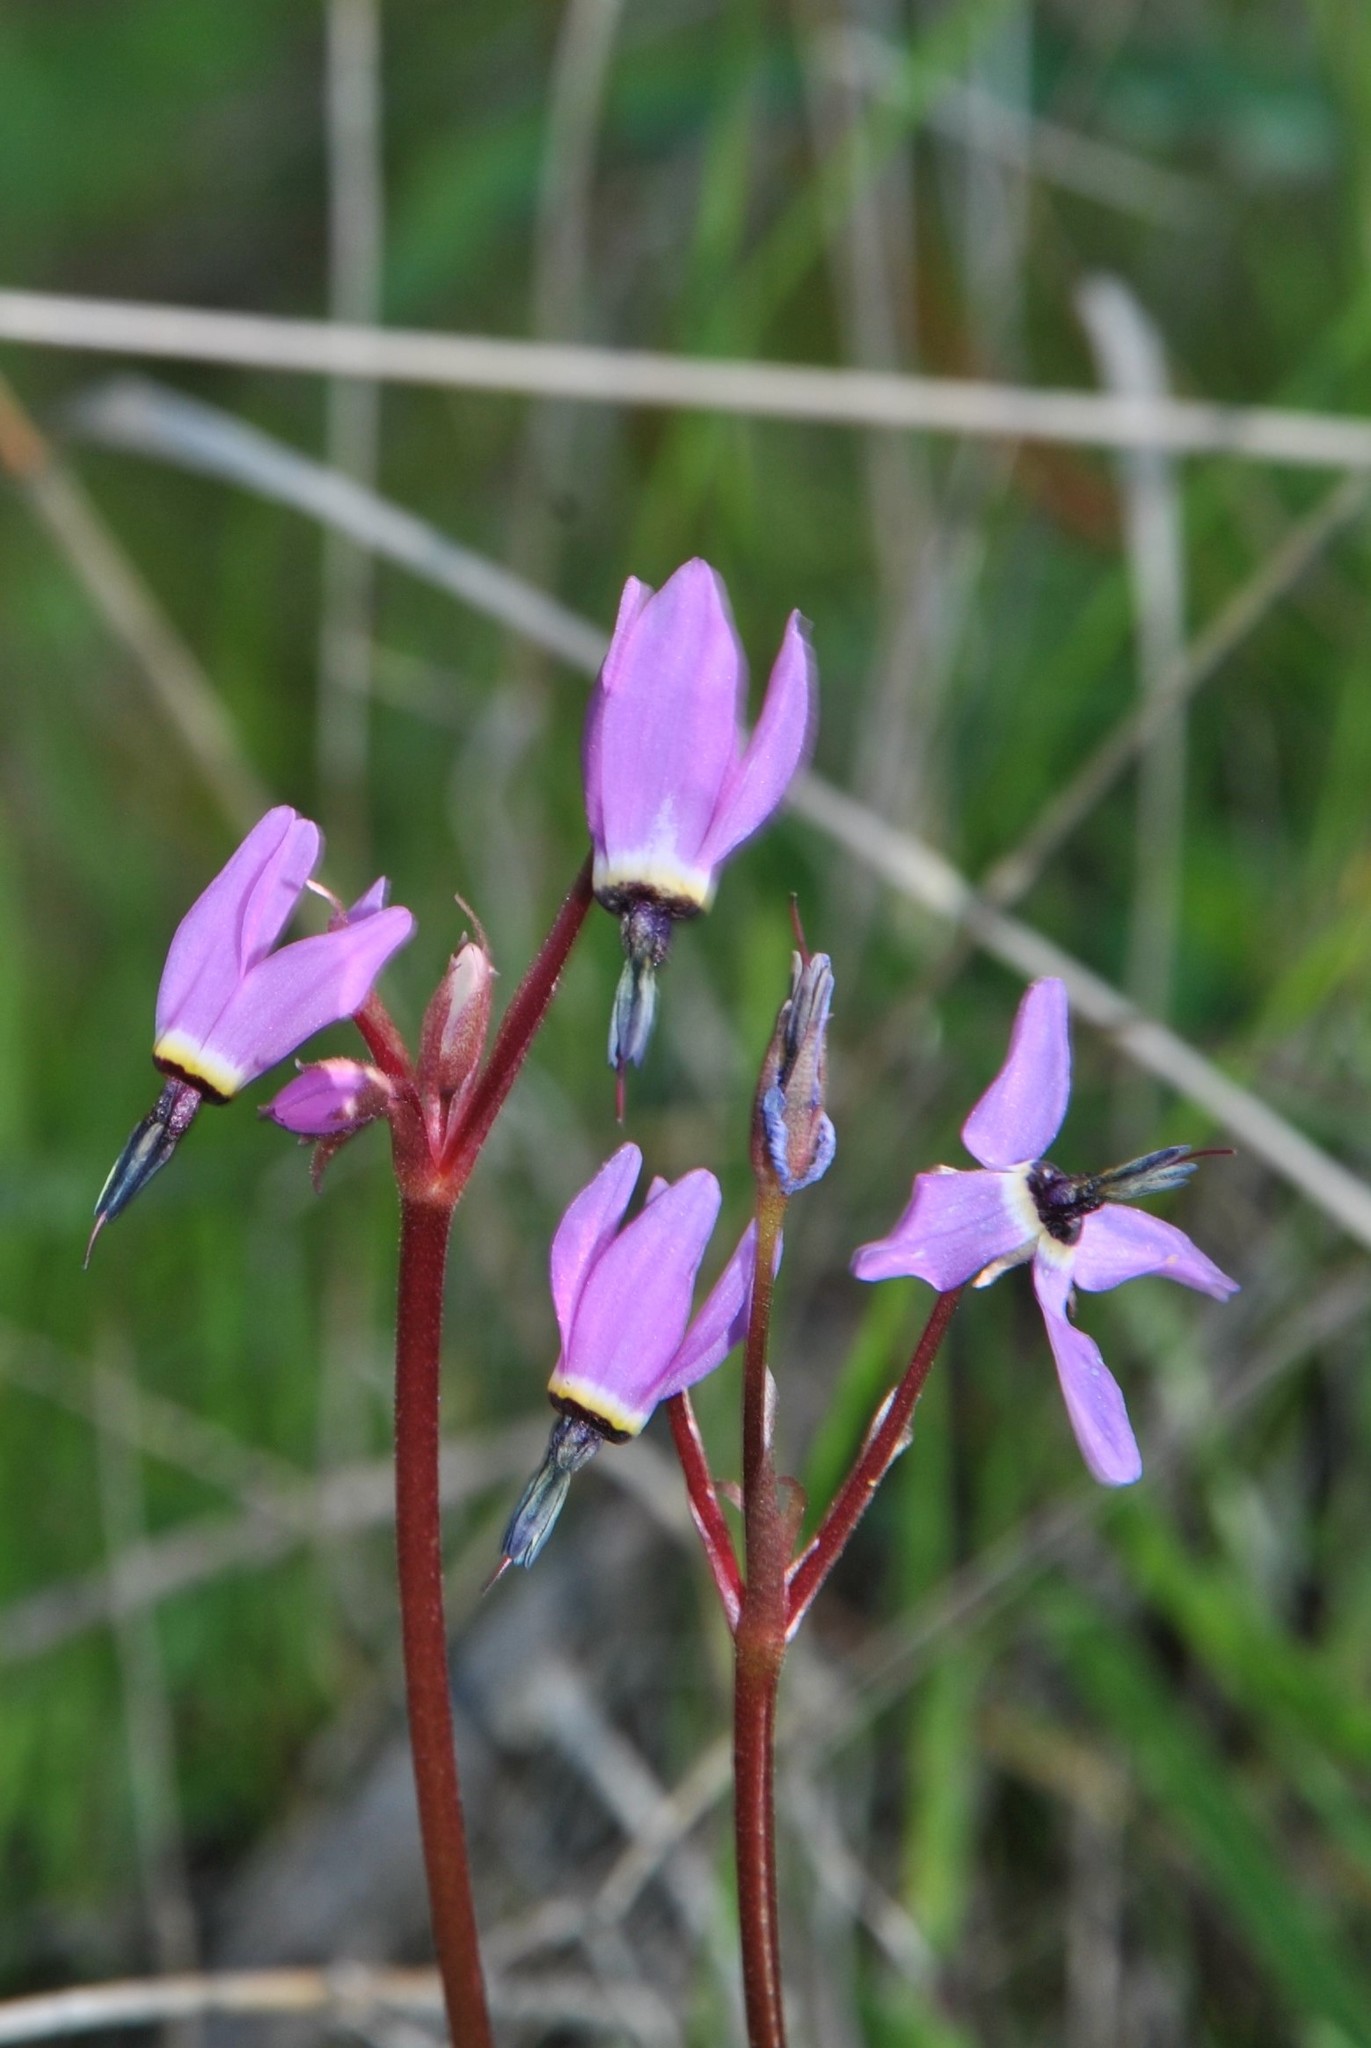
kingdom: Plantae
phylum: Tracheophyta
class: Magnoliopsida
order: Ericales
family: Primulaceae
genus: Dodecatheon
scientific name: Dodecatheon hendersonii
